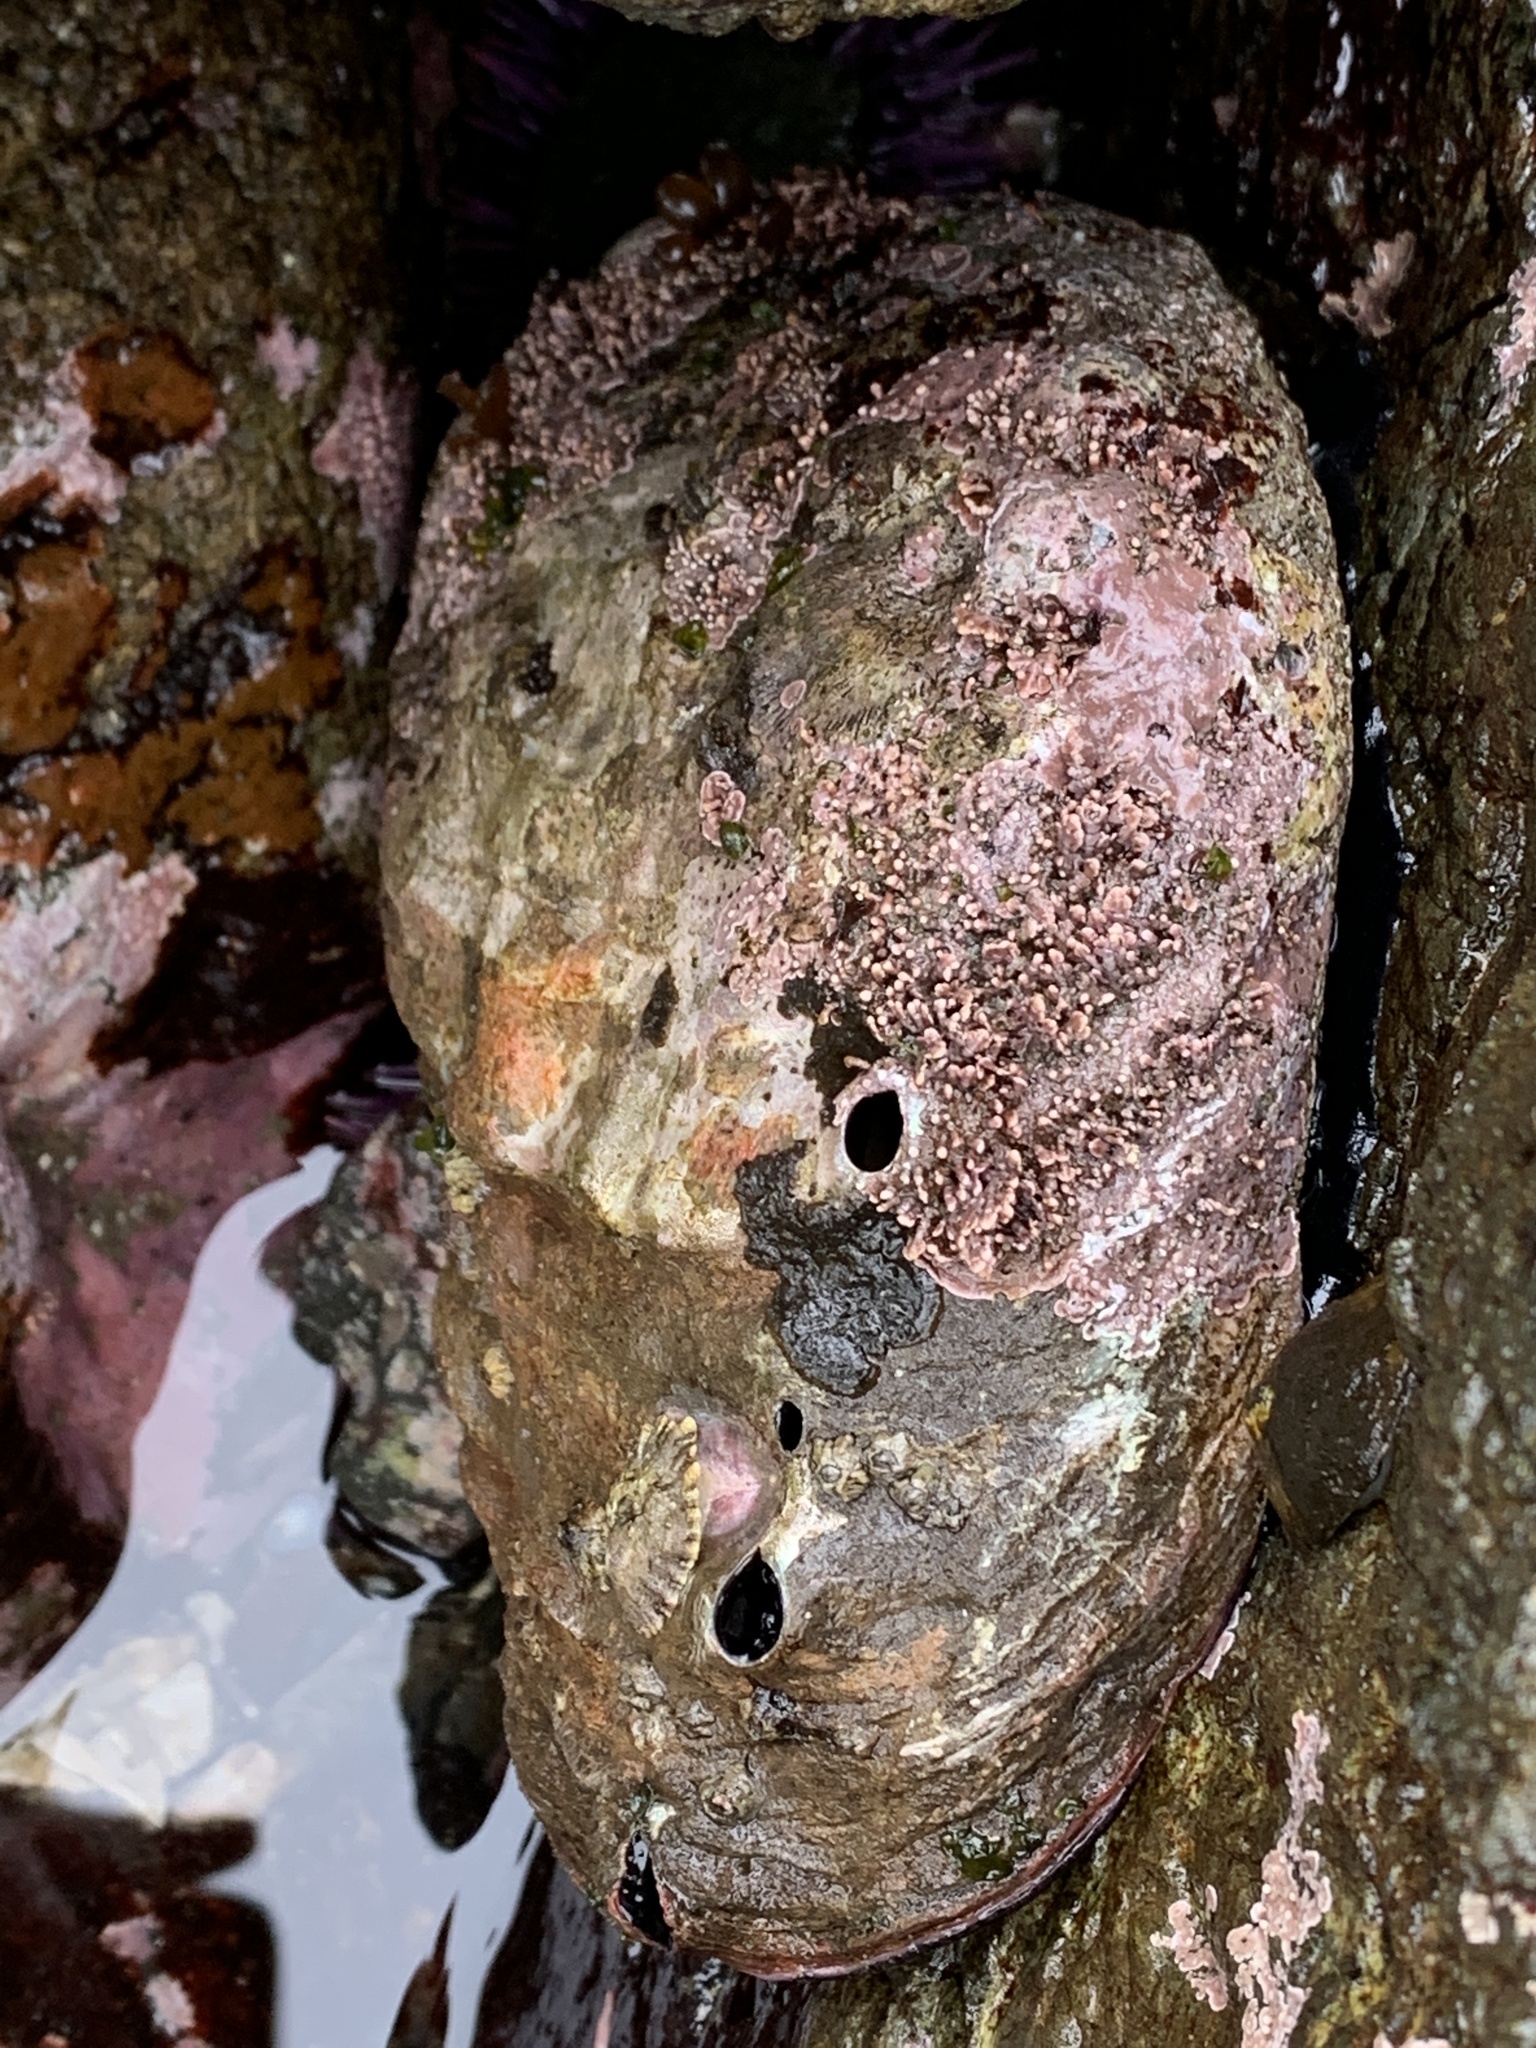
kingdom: Animalia
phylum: Mollusca
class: Gastropoda
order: Lepetellida
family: Haliotidae
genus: Haliotis
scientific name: Haliotis rufescens
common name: Red abalone
